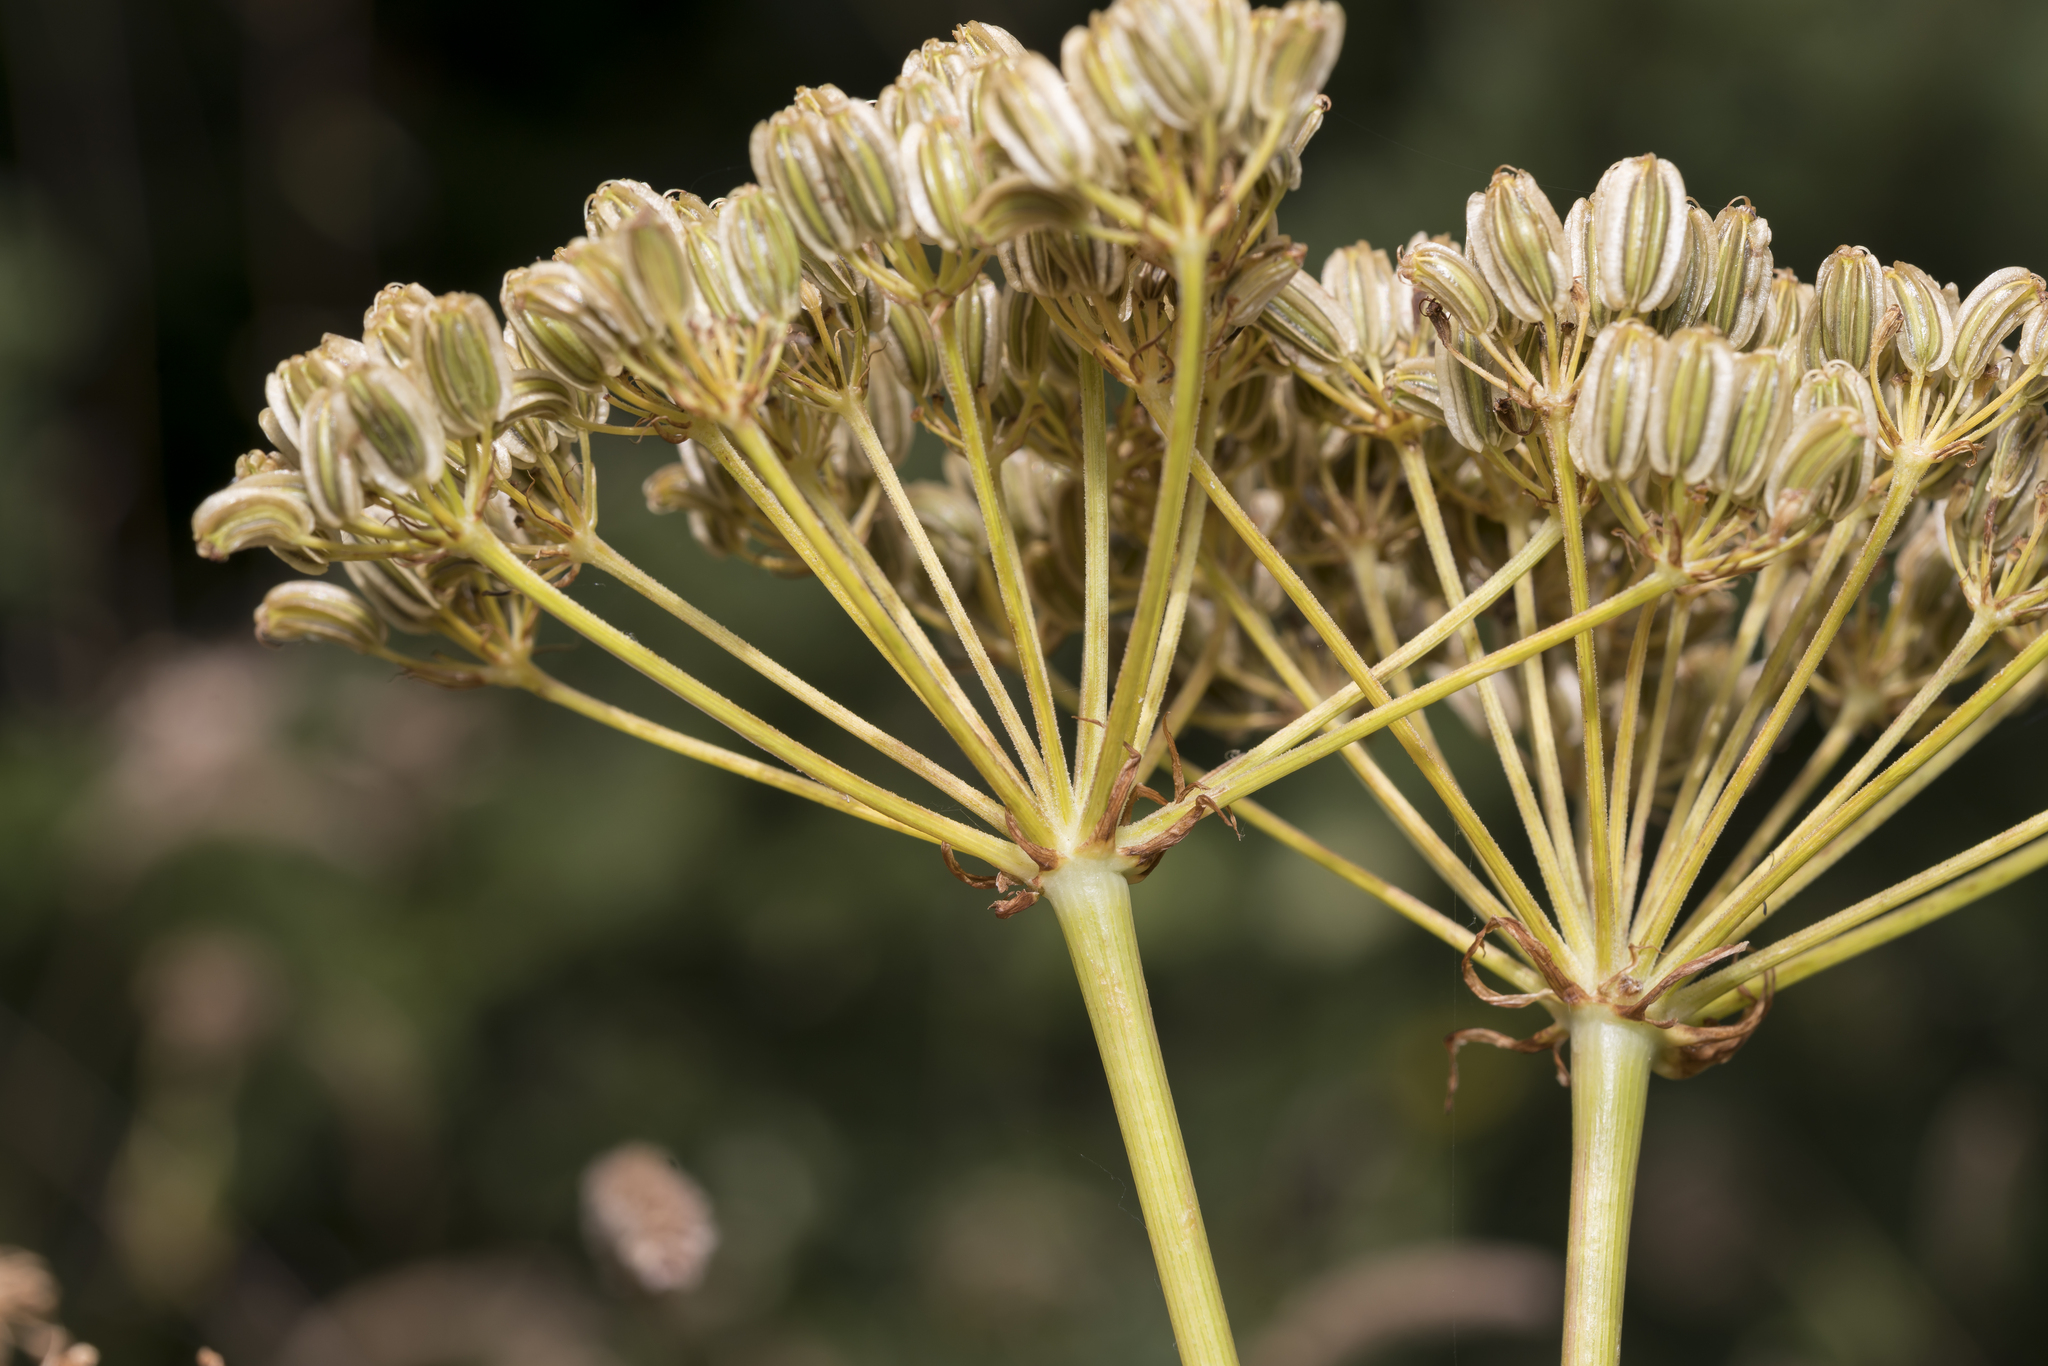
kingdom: Plantae
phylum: Tracheophyta
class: Magnoliopsida
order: Apiales
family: Apiaceae
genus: Siler
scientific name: Siler montanum
